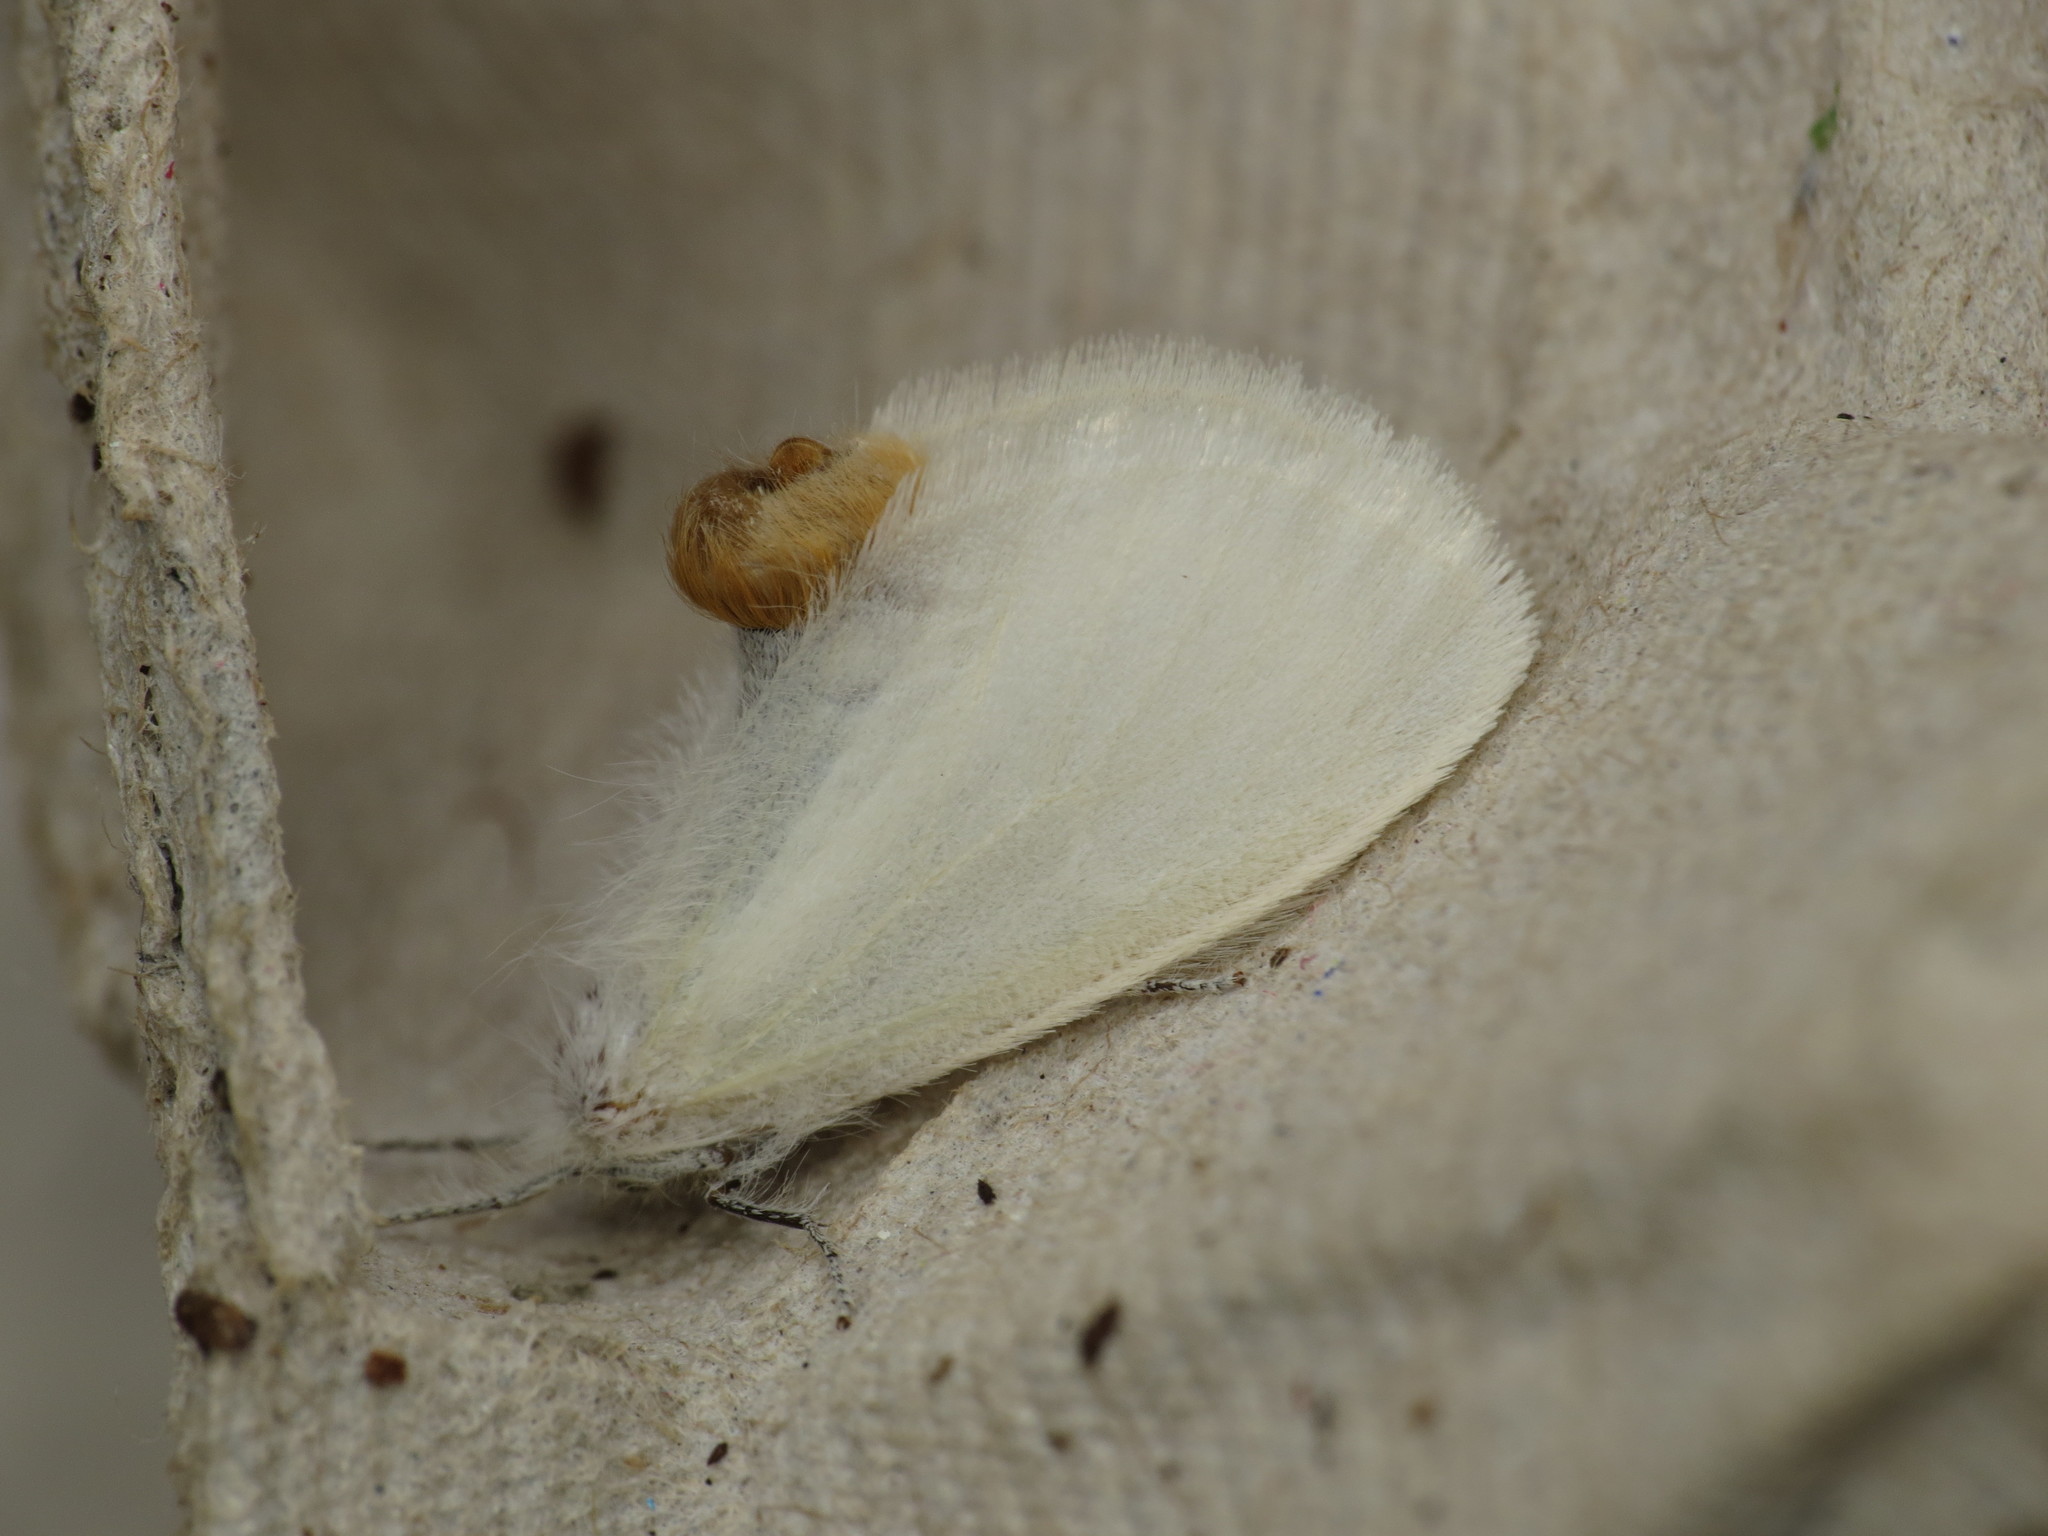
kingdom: Animalia
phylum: Arthropoda
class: Insecta
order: Lepidoptera
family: Erebidae
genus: Acyphas
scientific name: Acyphas chionitis
